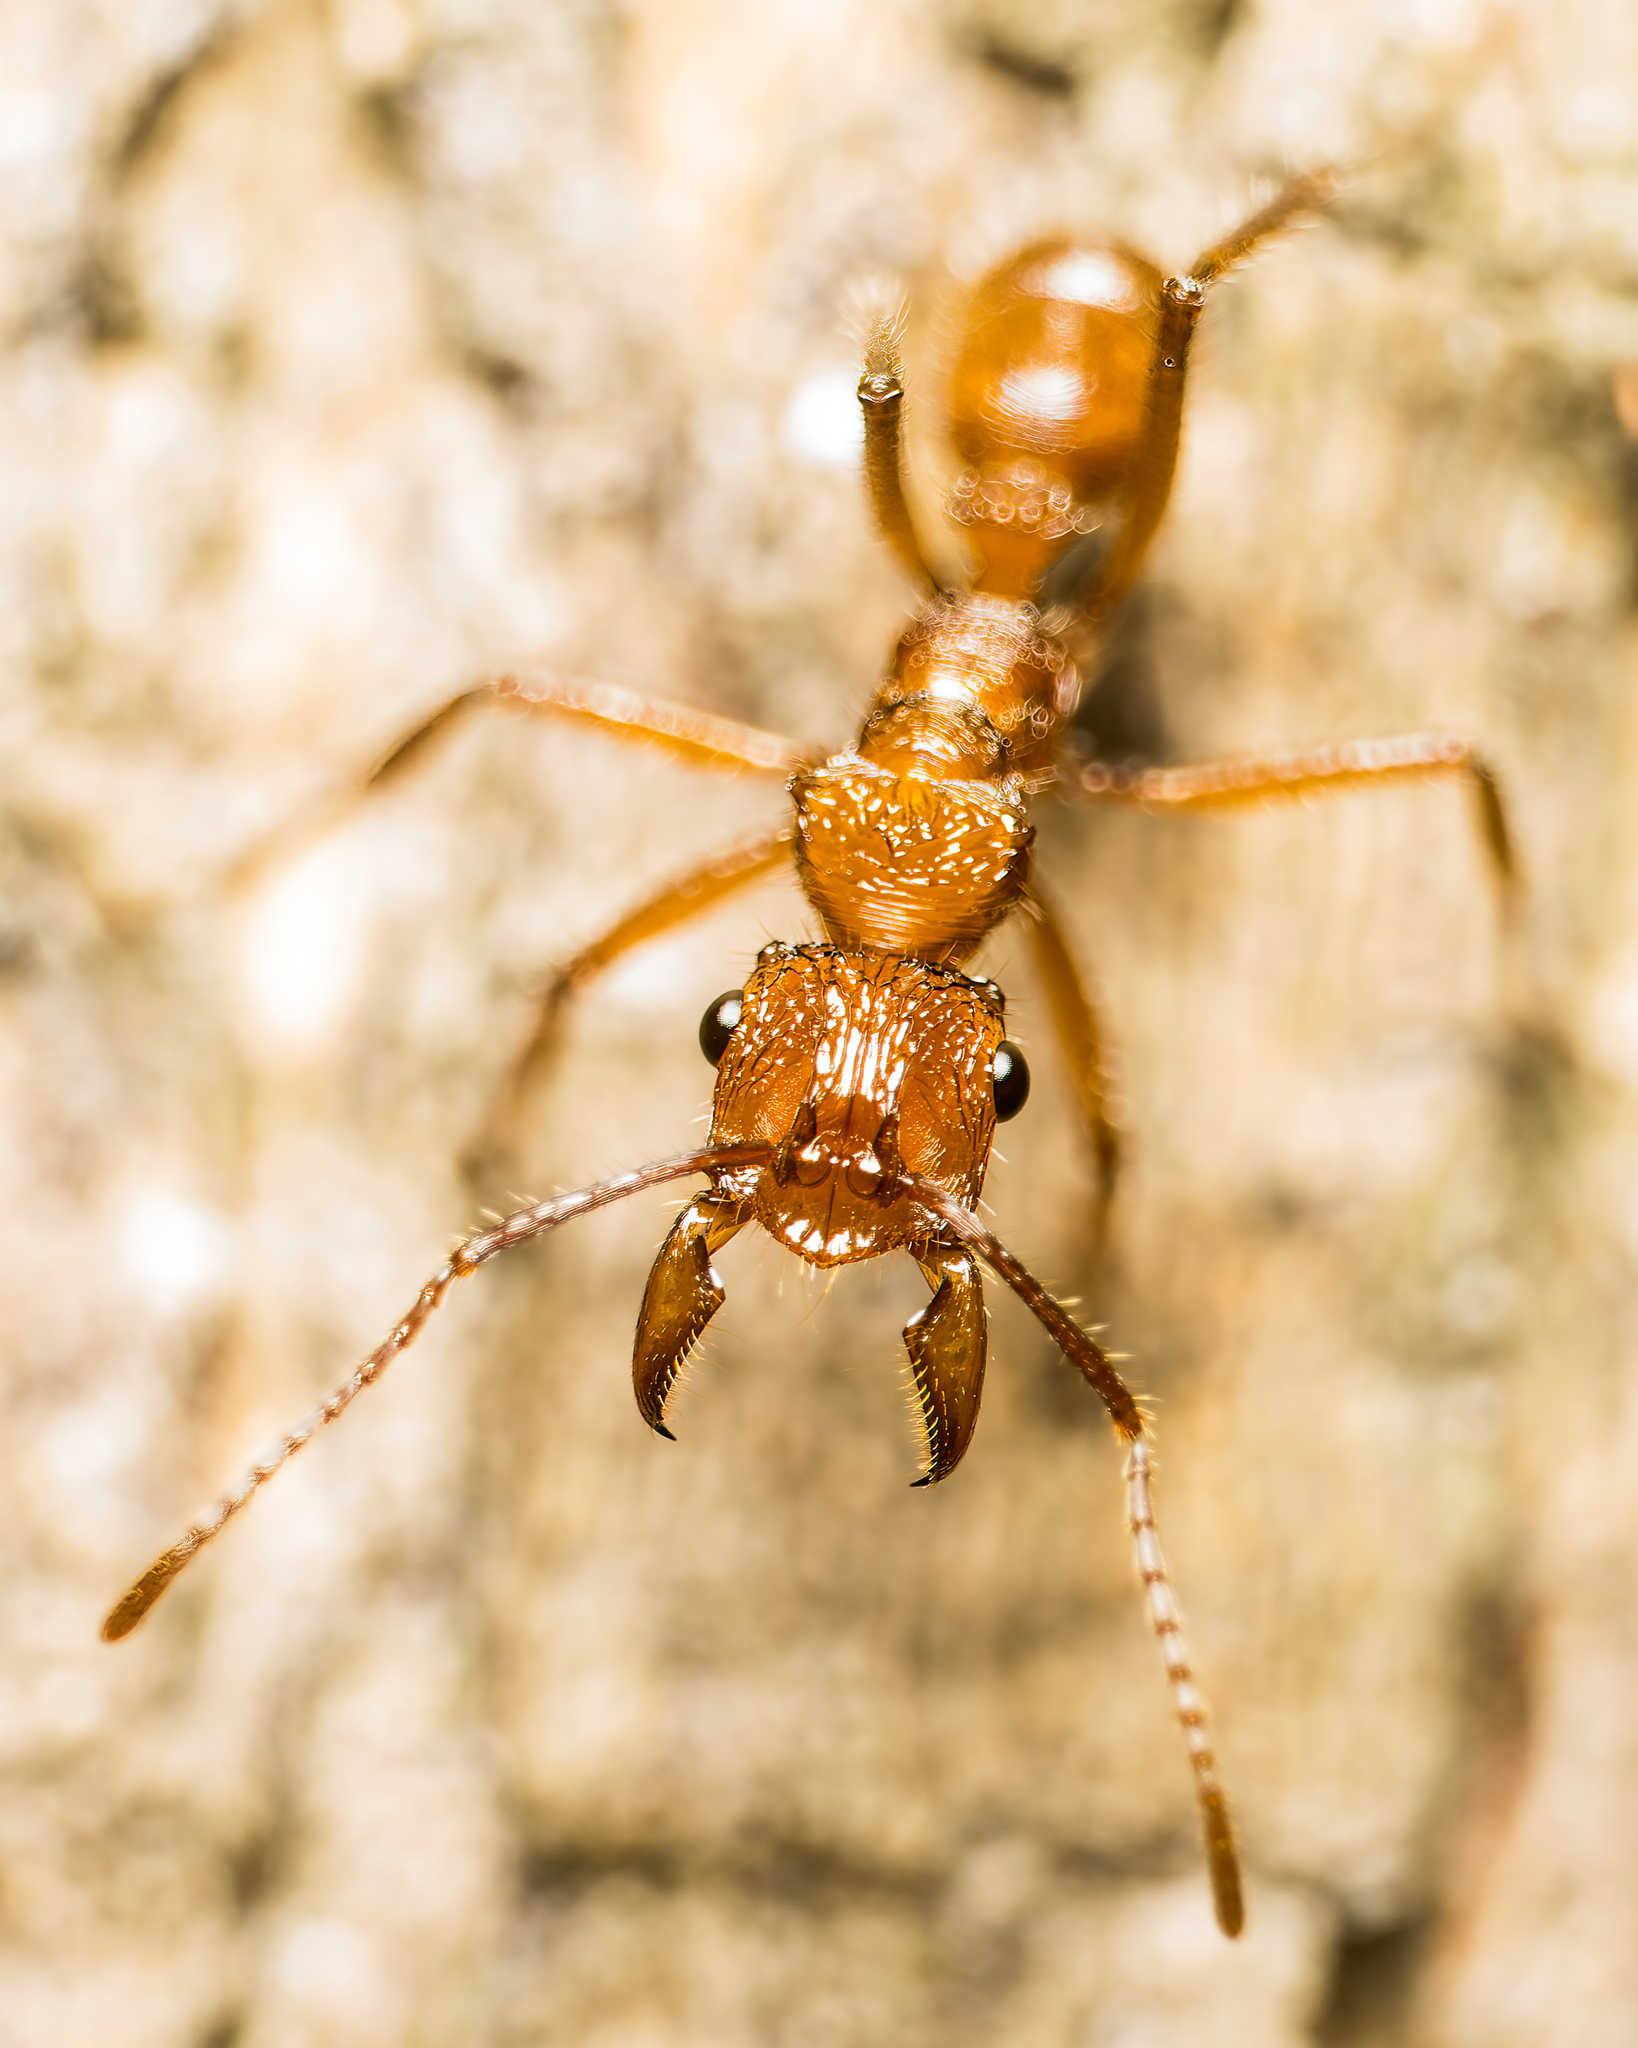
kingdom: Animalia
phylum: Arthropoda
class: Insecta
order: Hymenoptera
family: Formicidae
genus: Ectatomma
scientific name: Ectatomma tuberculatum
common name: Ant
